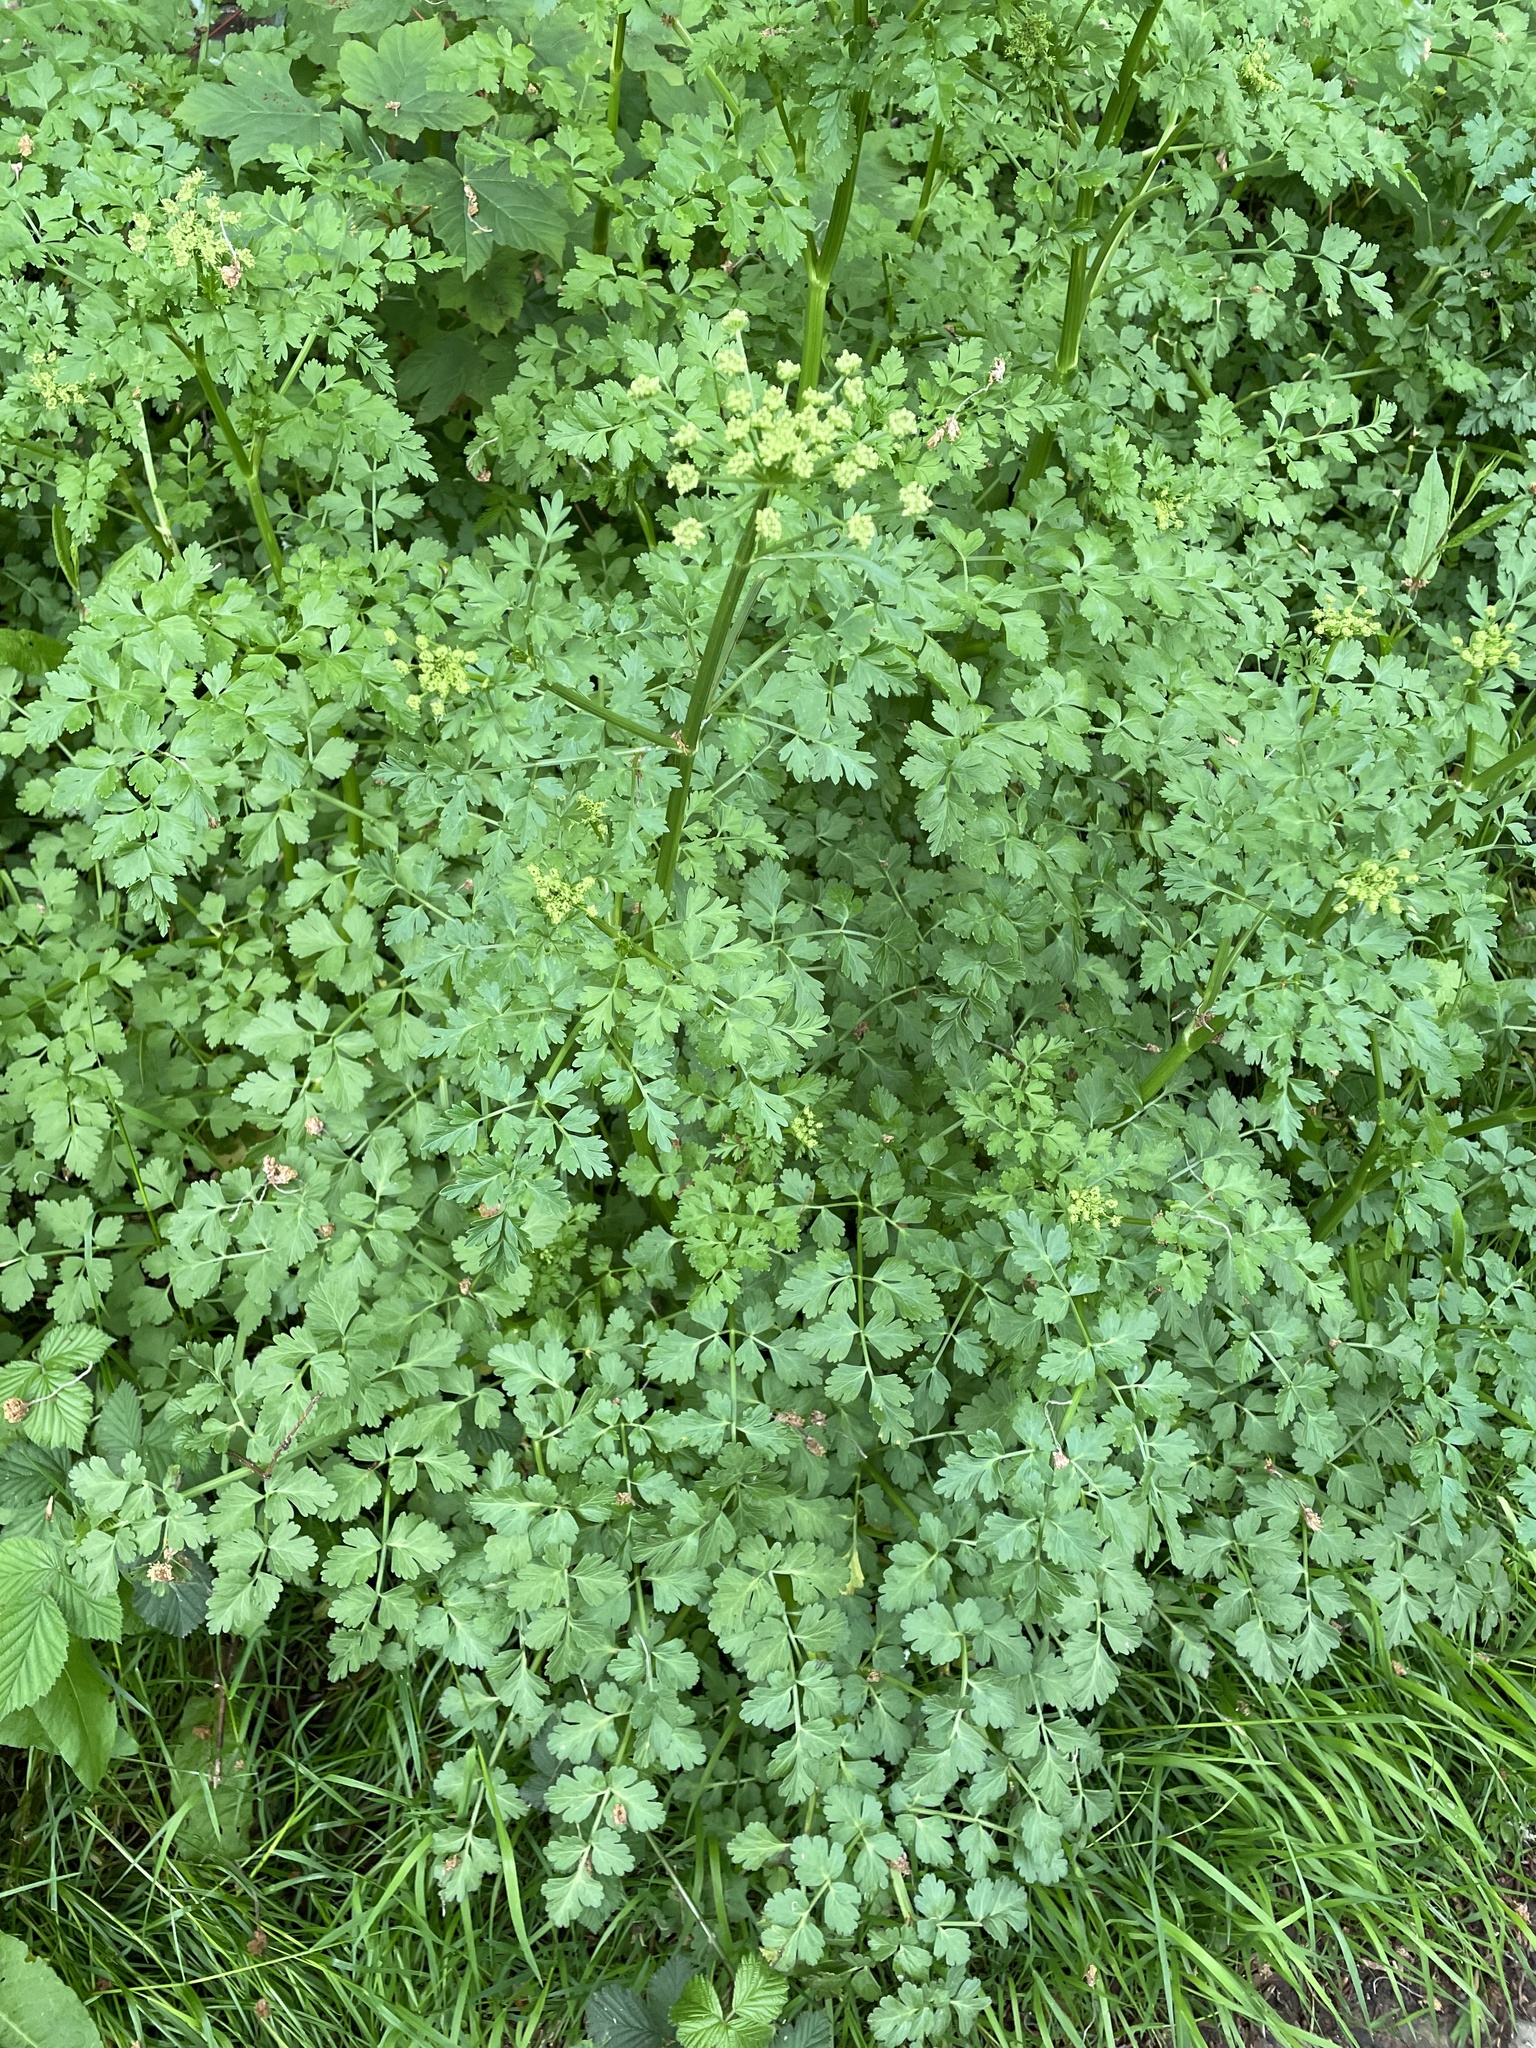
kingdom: Plantae
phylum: Tracheophyta
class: Magnoliopsida
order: Apiales
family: Apiaceae
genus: Oenanthe
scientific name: Oenanthe crocata
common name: Hemlock water-dropwort
